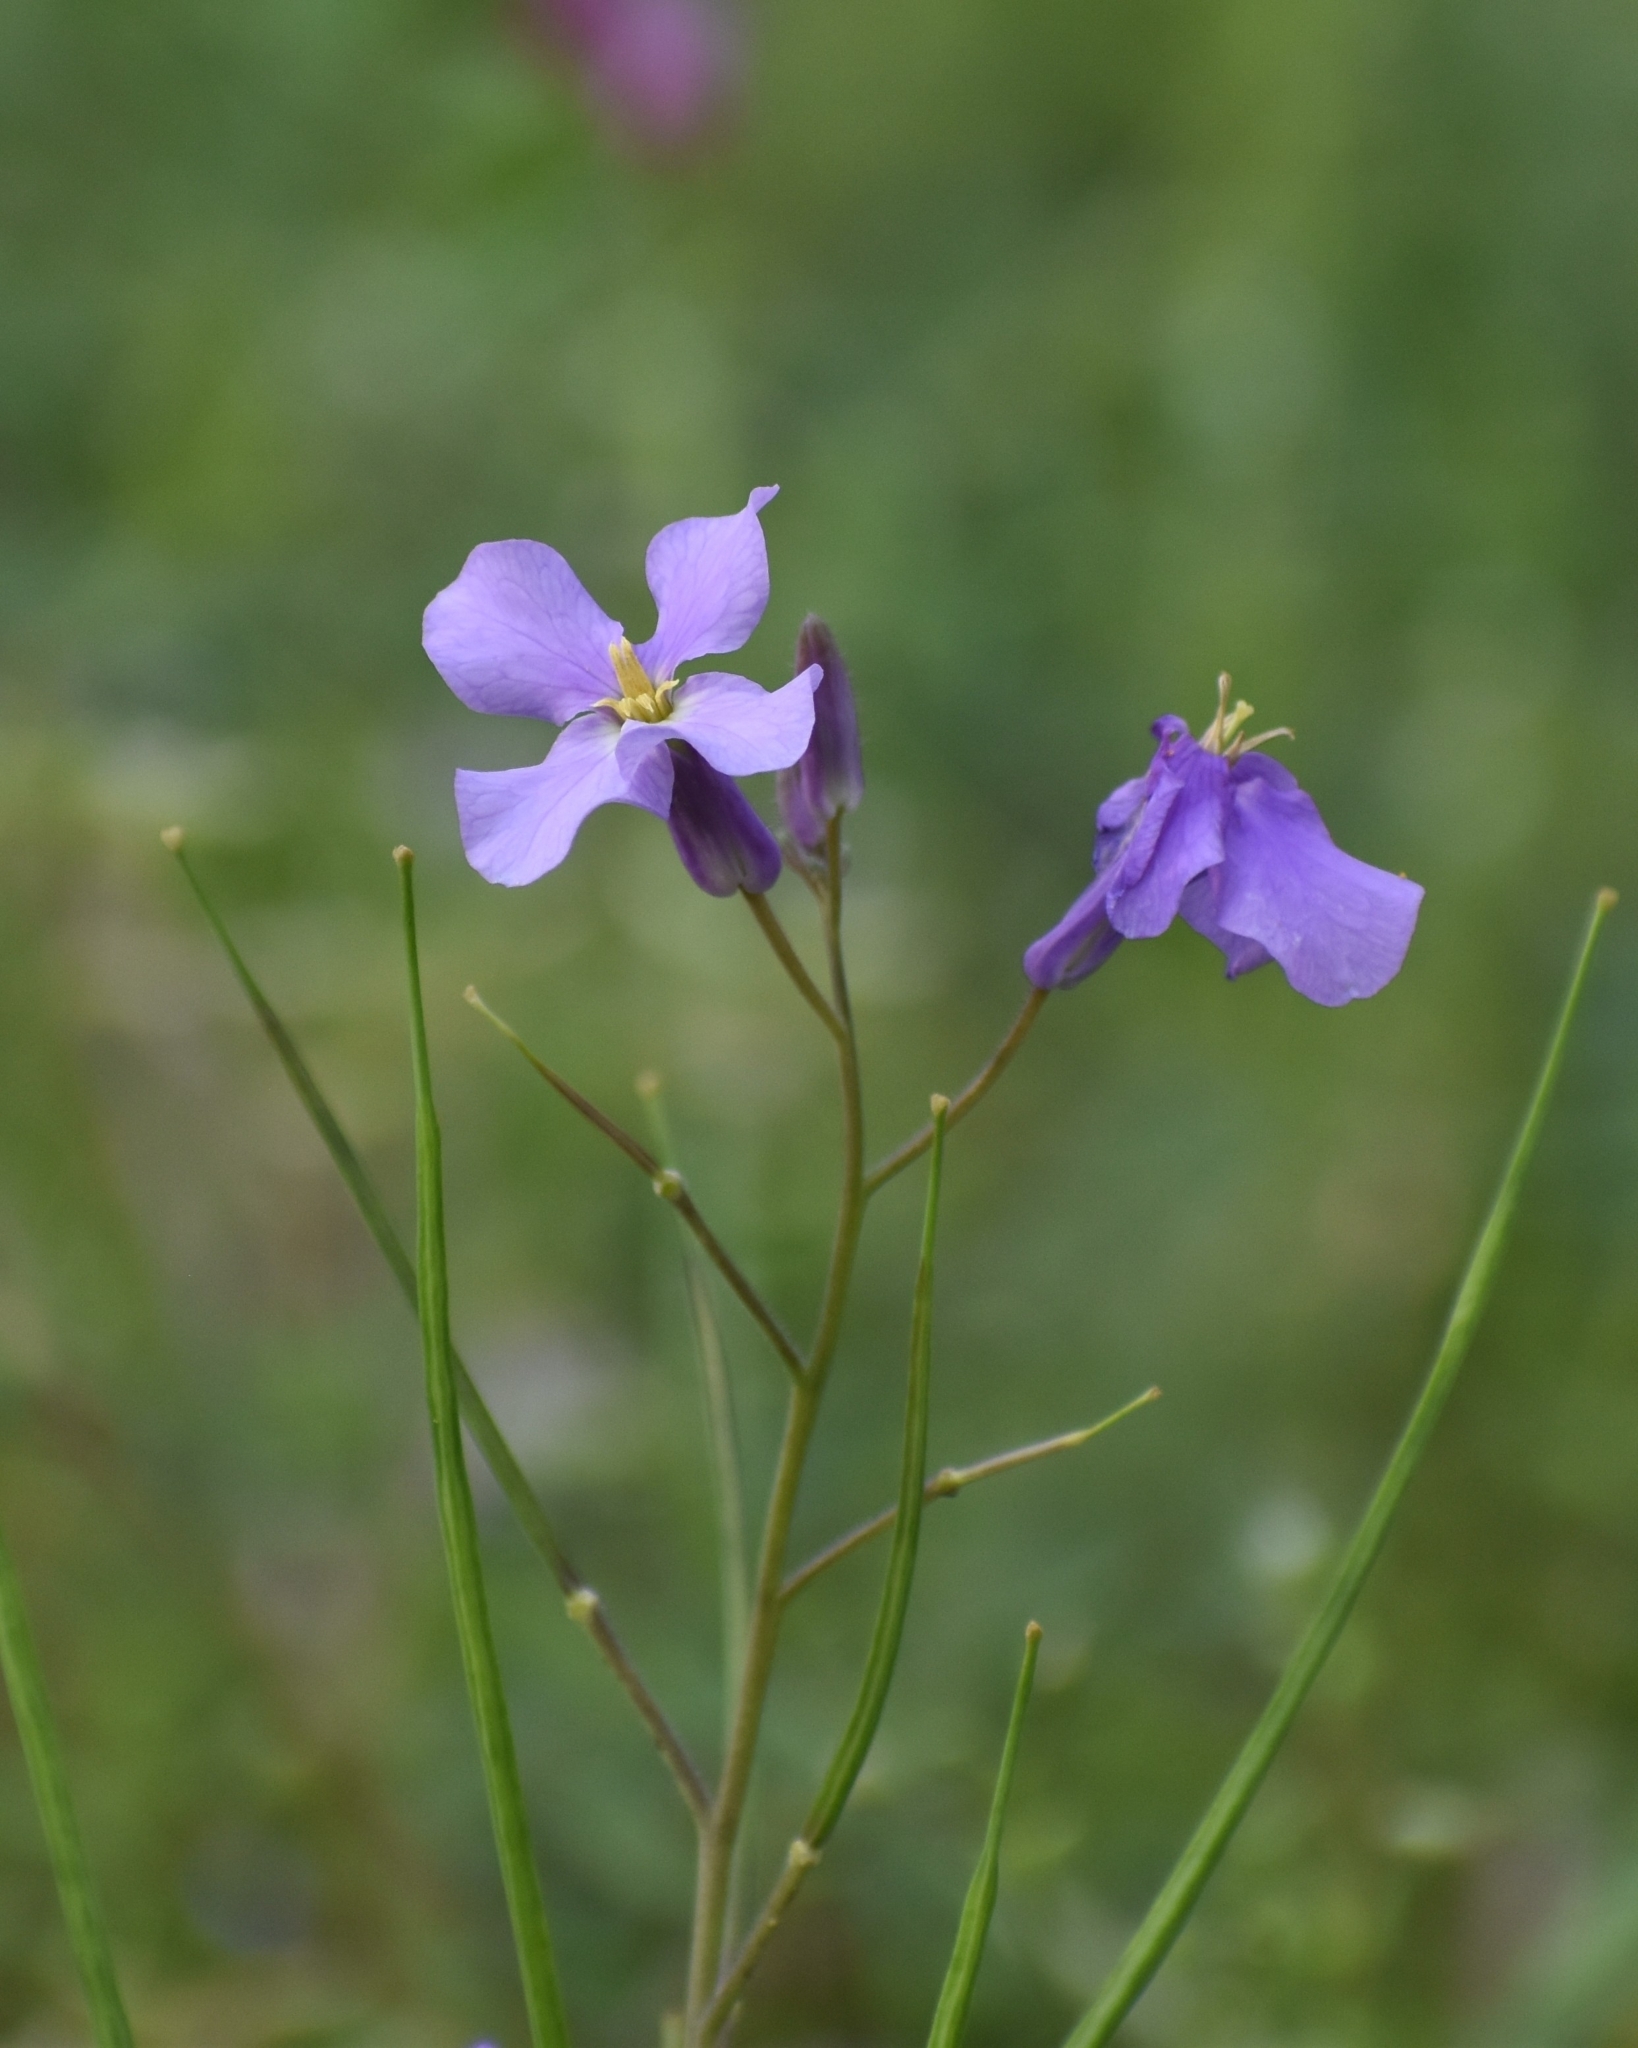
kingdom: Plantae
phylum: Tracheophyta
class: Magnoliopsida
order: Brassicales
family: Brassicaceae
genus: Orychophragmus
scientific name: Orychophragmus violaceus
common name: Mustard
